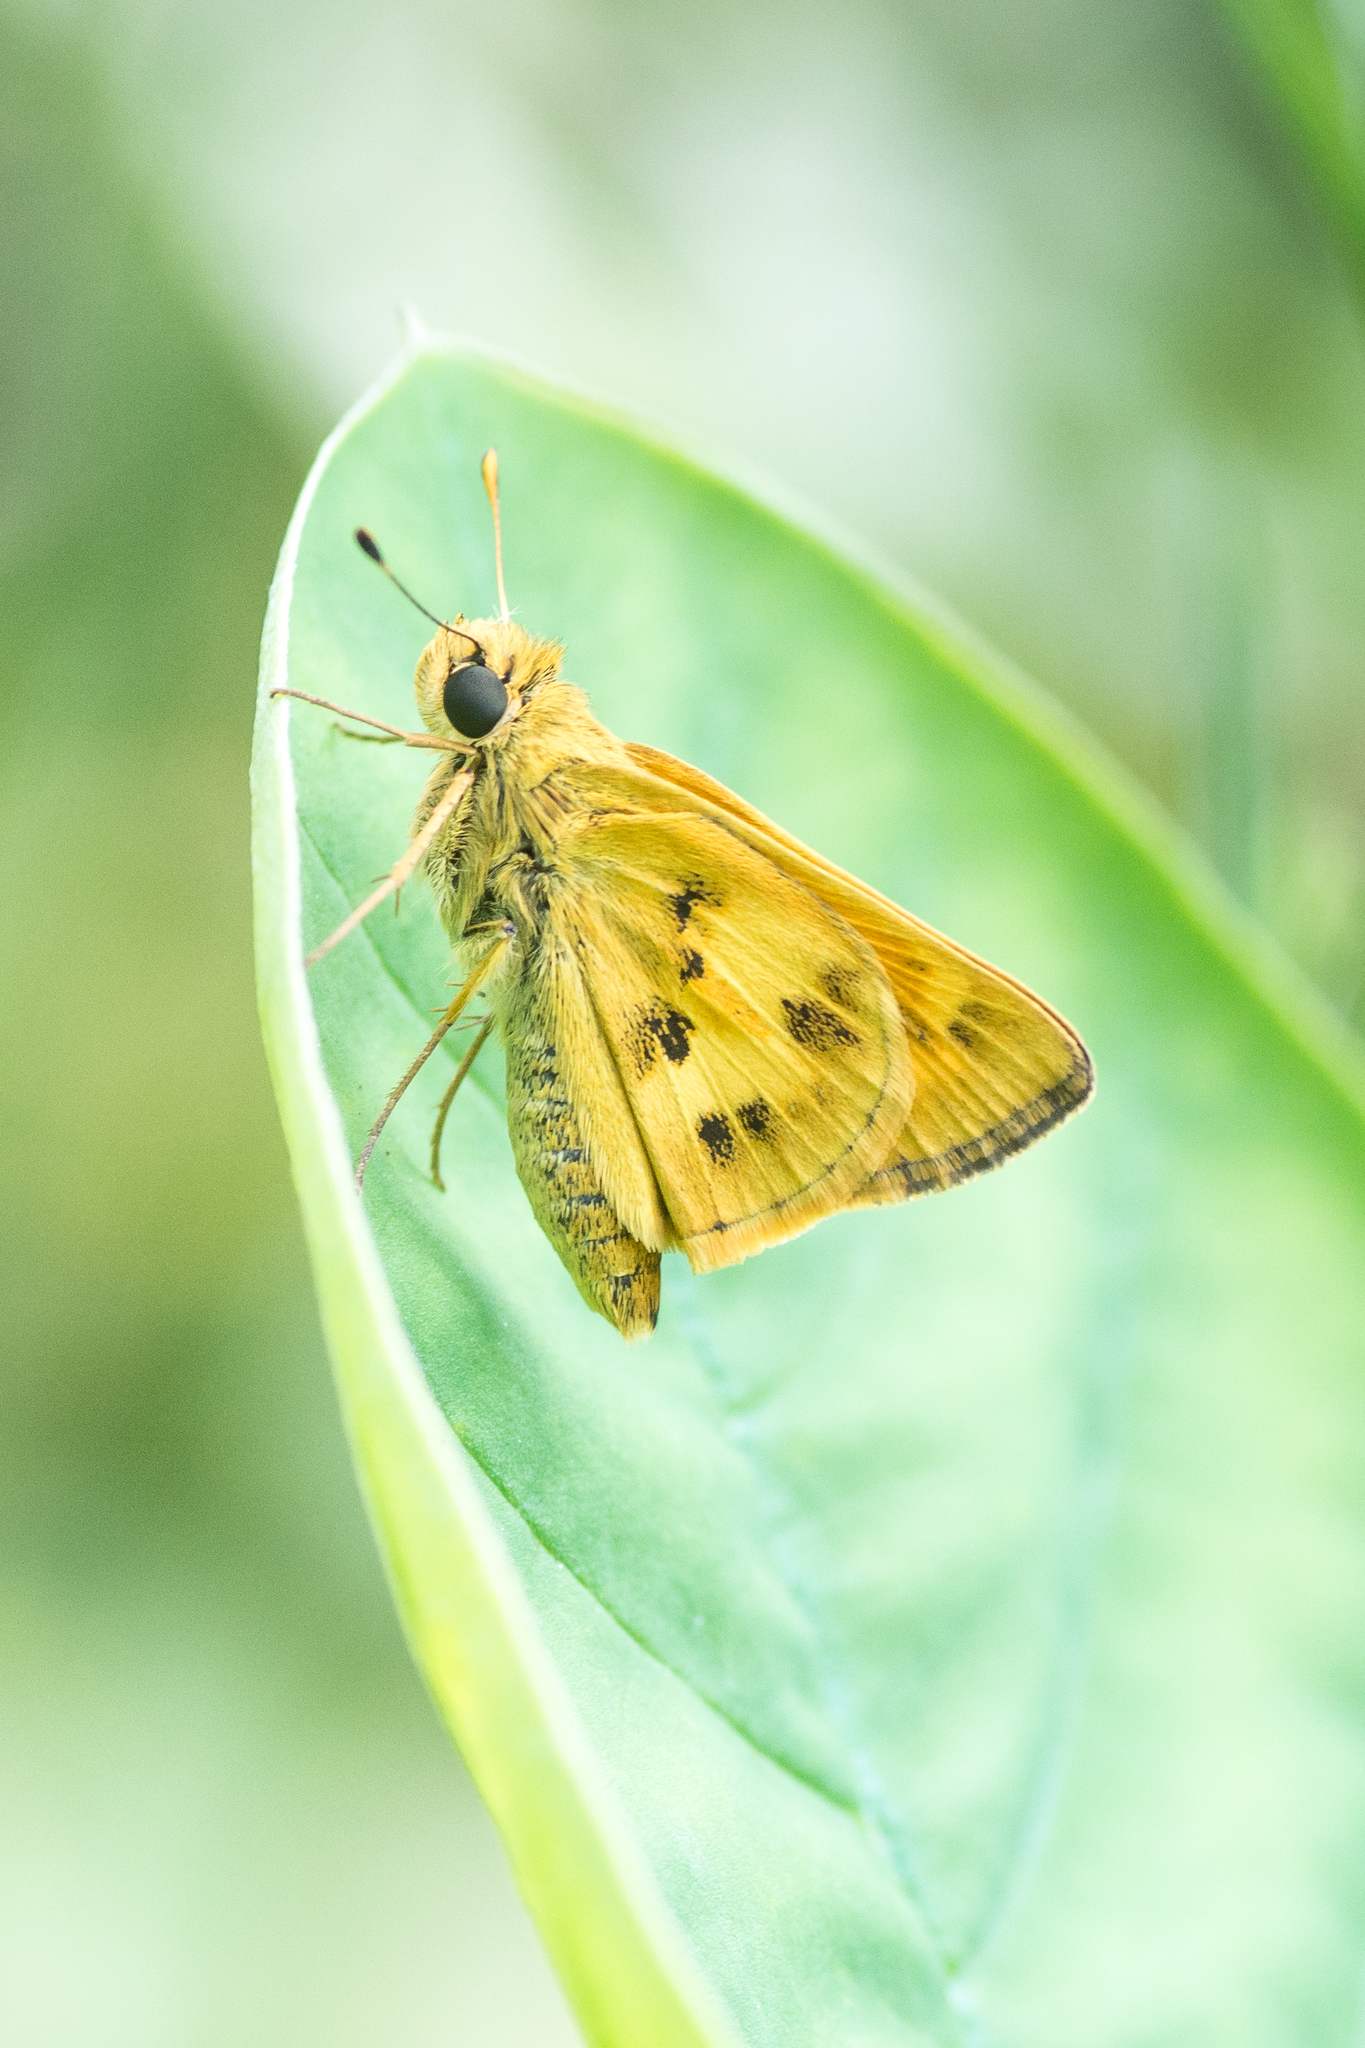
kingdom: Animalia
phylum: Arthropoda
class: Insecta
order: Lepidoptera
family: Hesperiidae
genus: Polites
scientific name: Polites vibex
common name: Whirlabout
